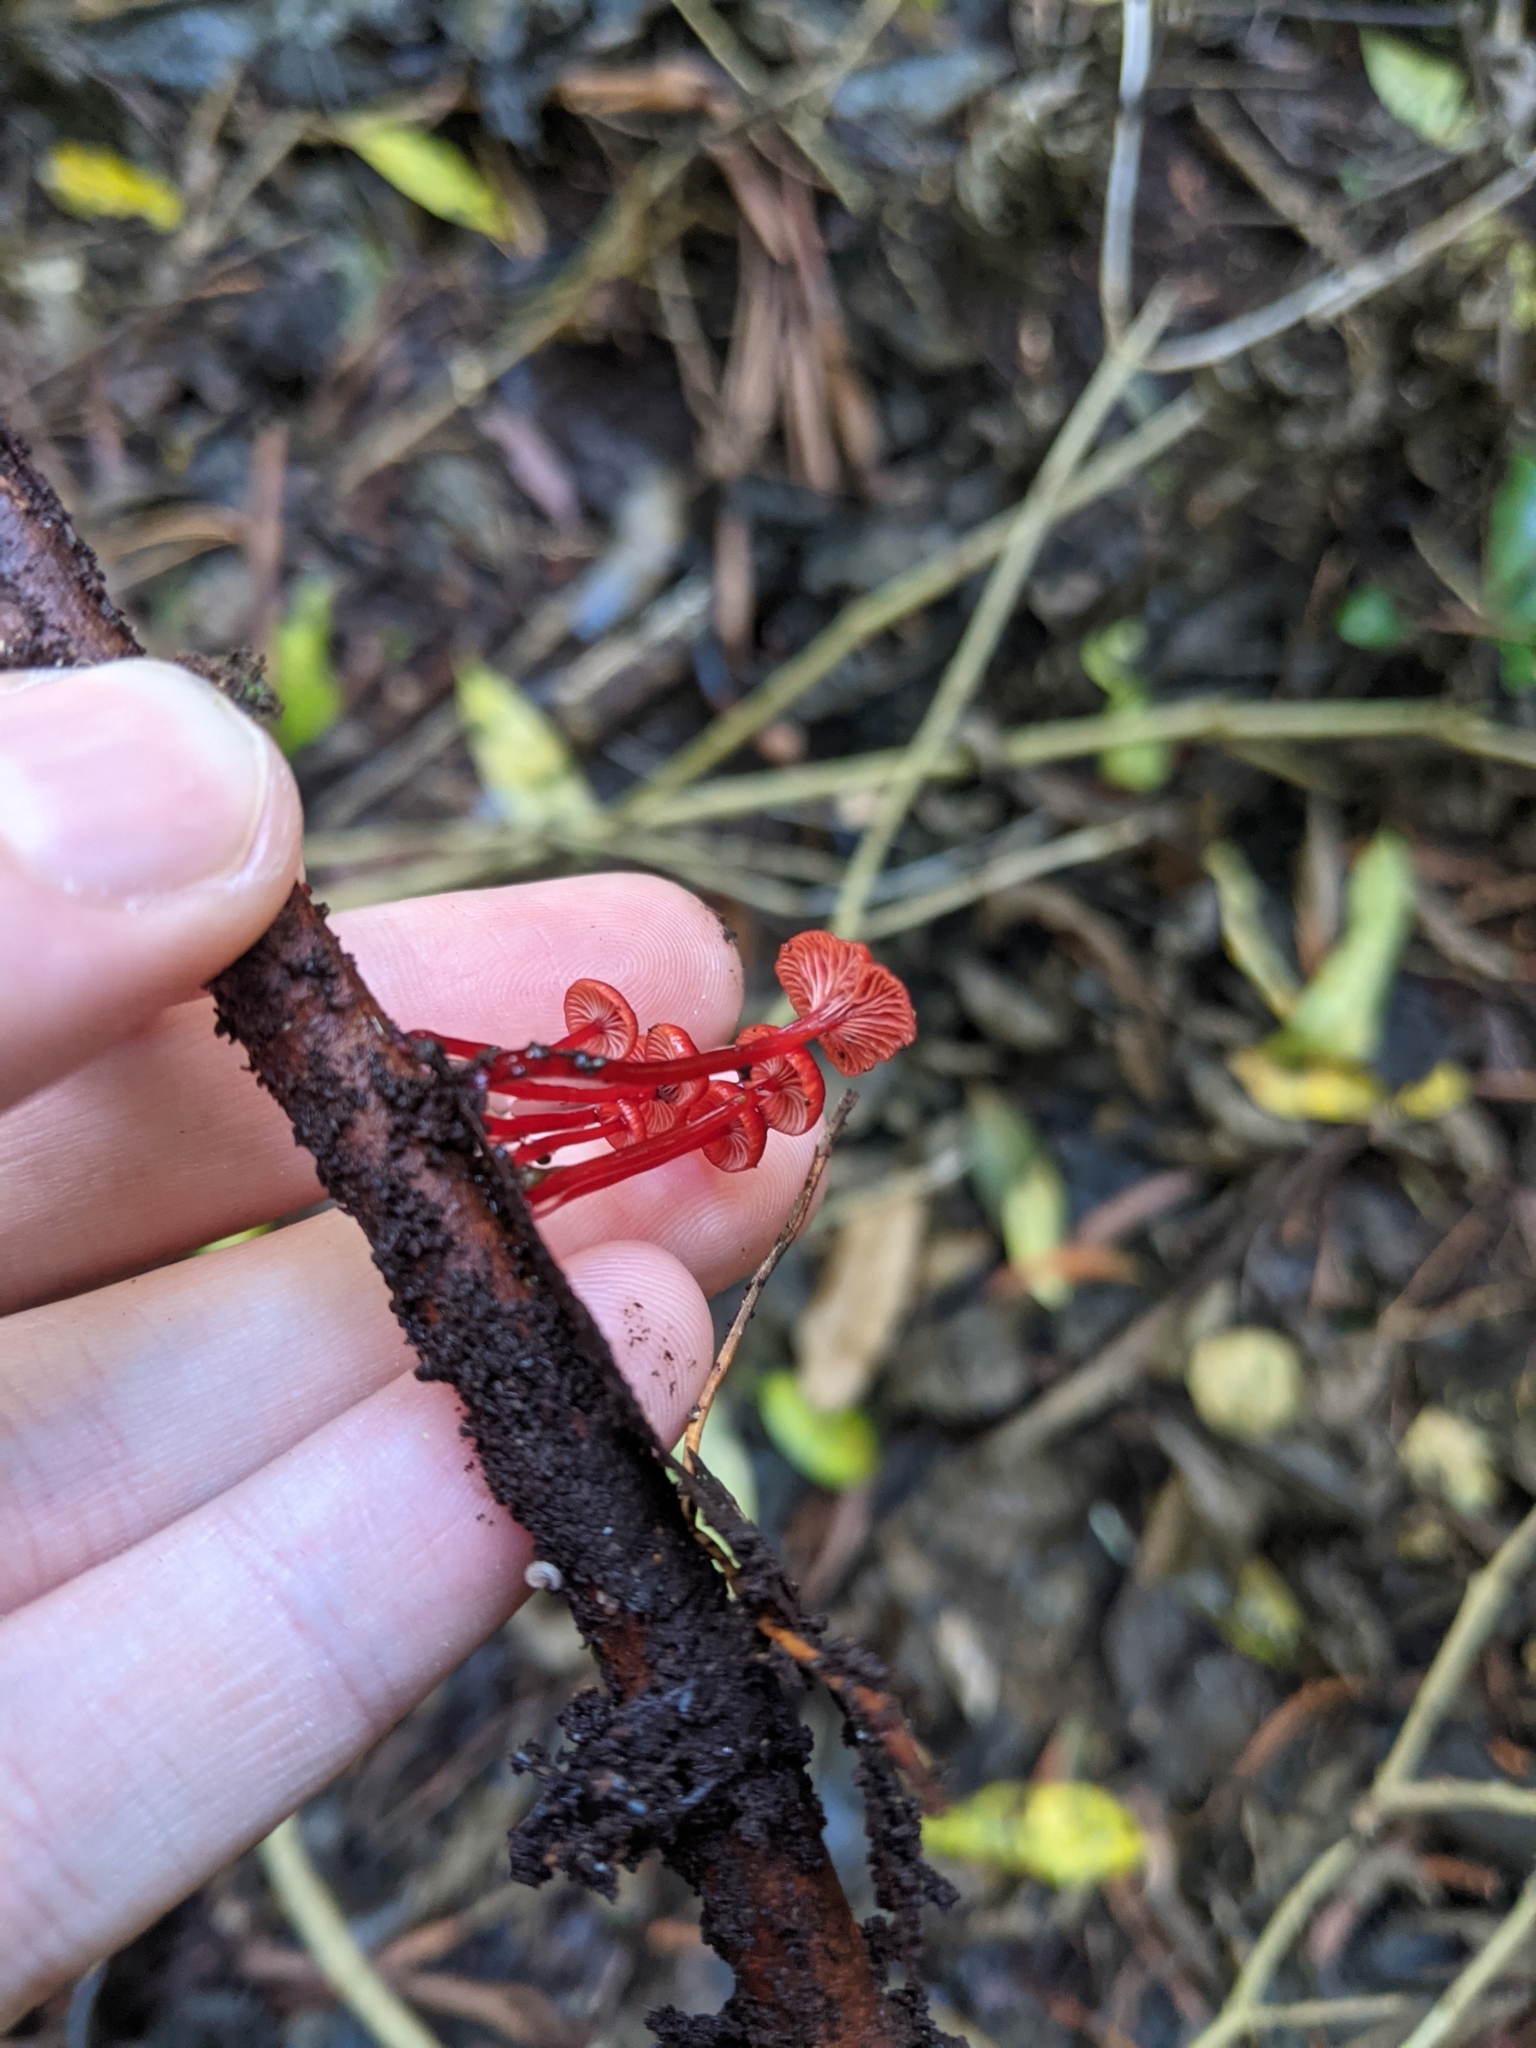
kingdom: Fungi
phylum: Basidiomycota
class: Agaricomycetes
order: Agaricales
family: Mycenaceae
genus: Cruentomycena
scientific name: Cruentomycena viscidocruenta
